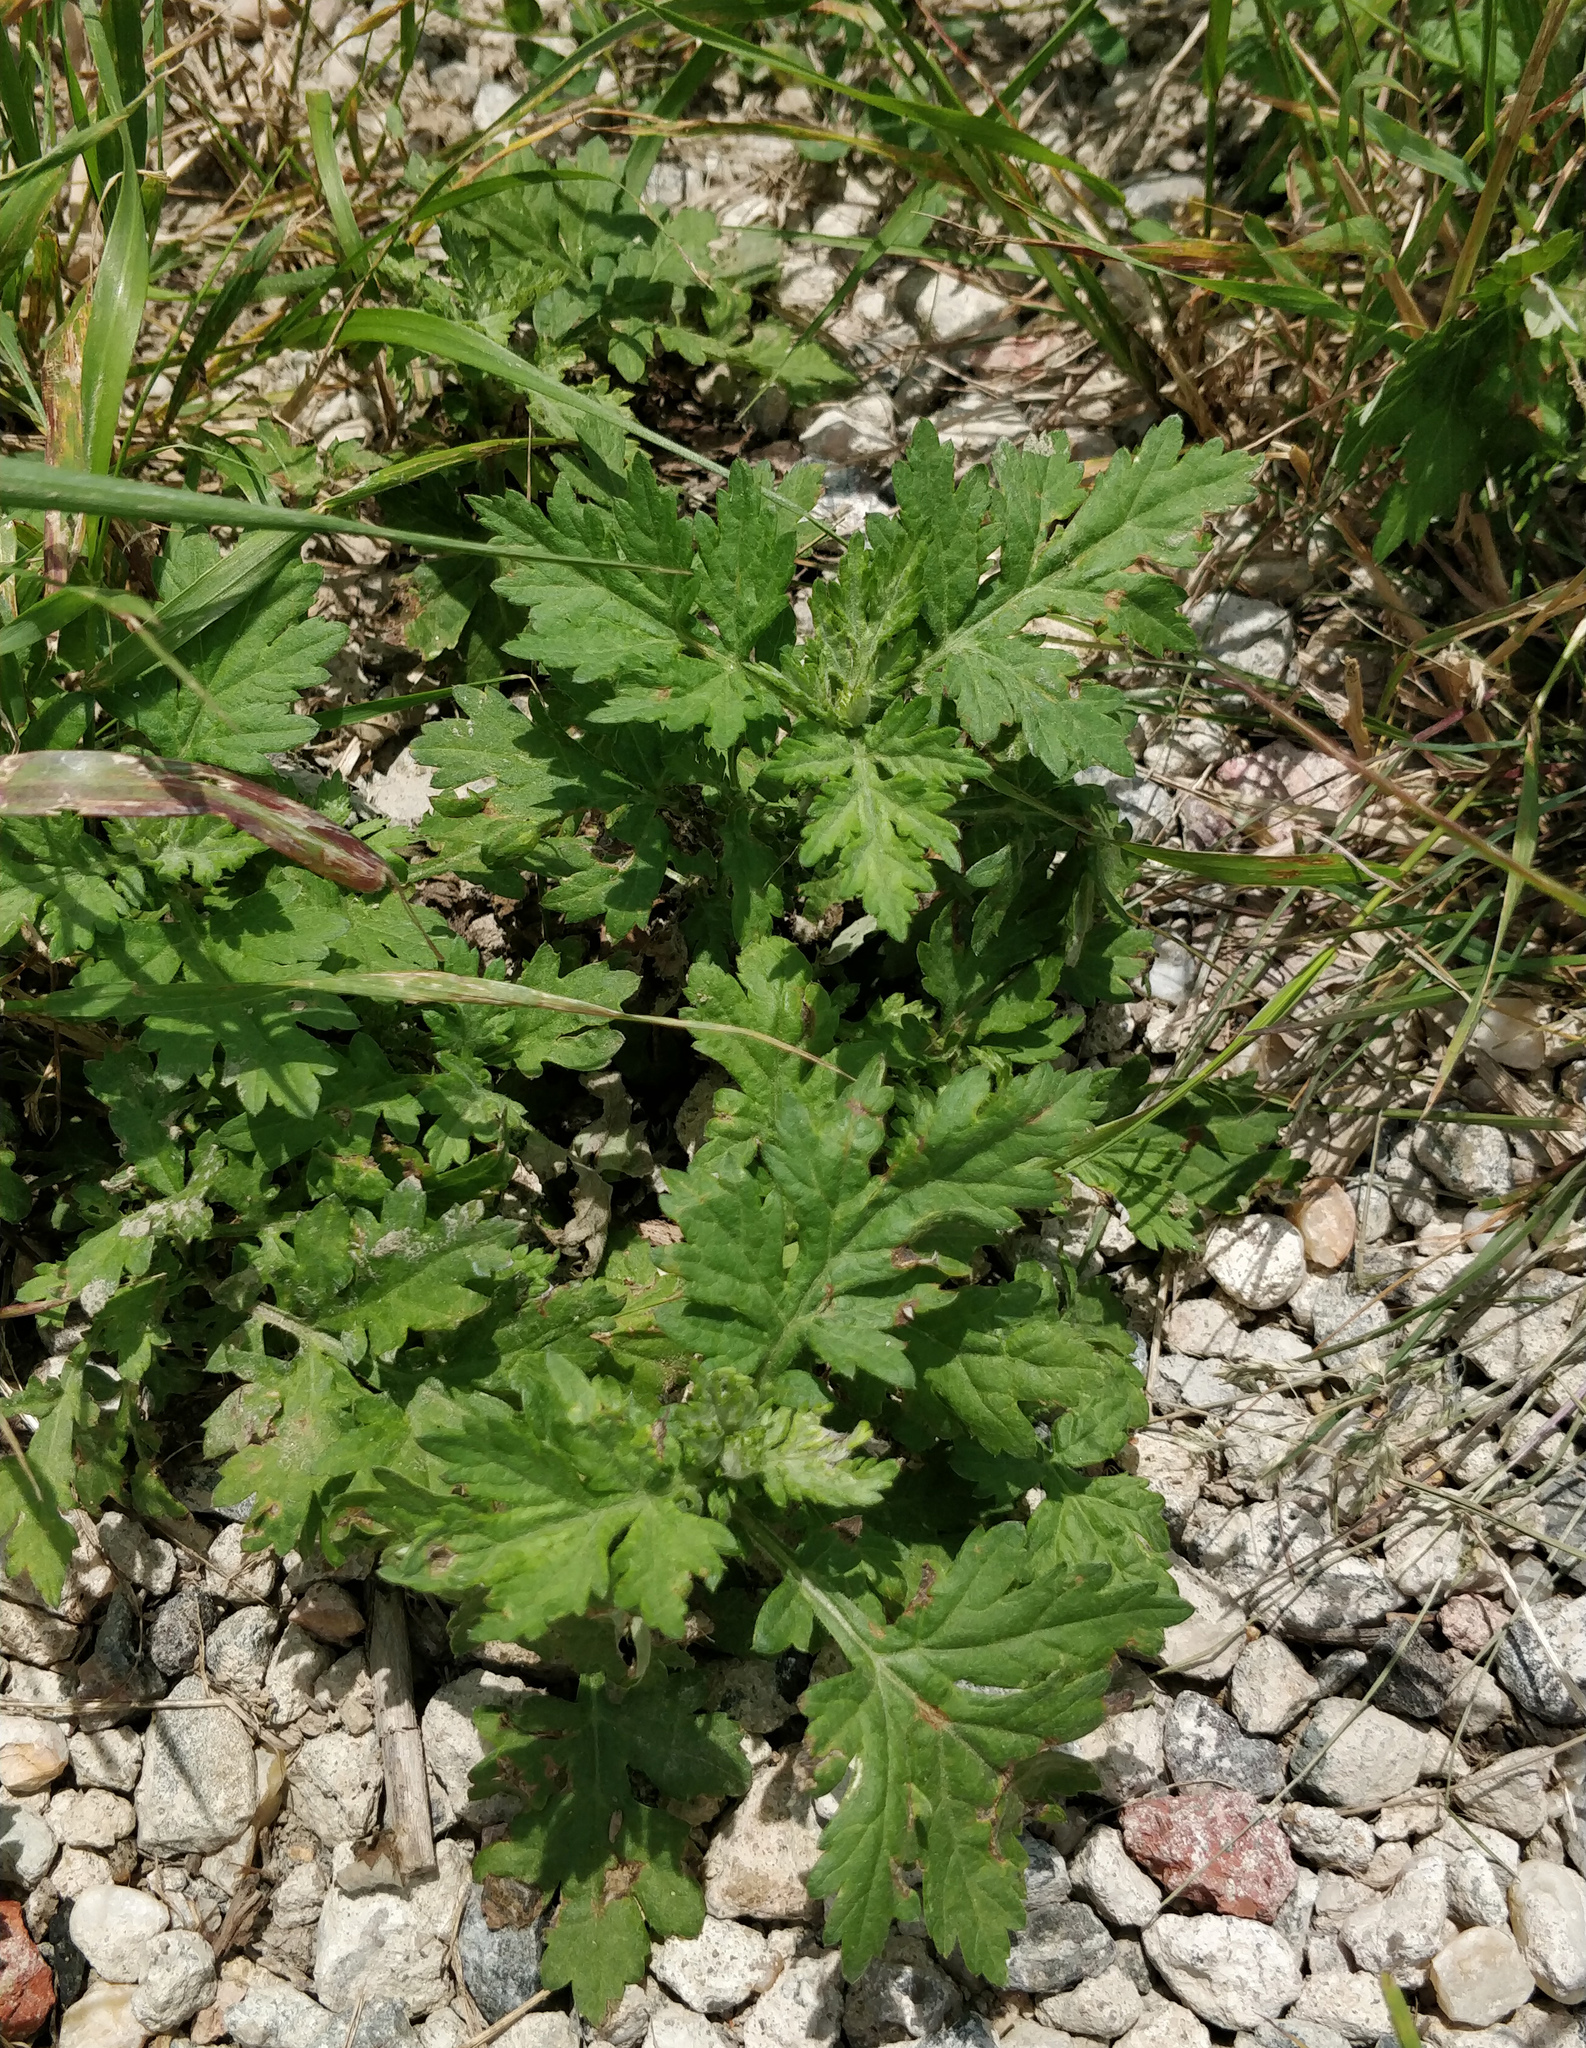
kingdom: Plantae
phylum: Tracheophyta
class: Magnoliopsida
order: Asterales
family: Asteraceae
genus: Artemisia
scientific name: Artemisia vulgaris
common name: Mugwort
